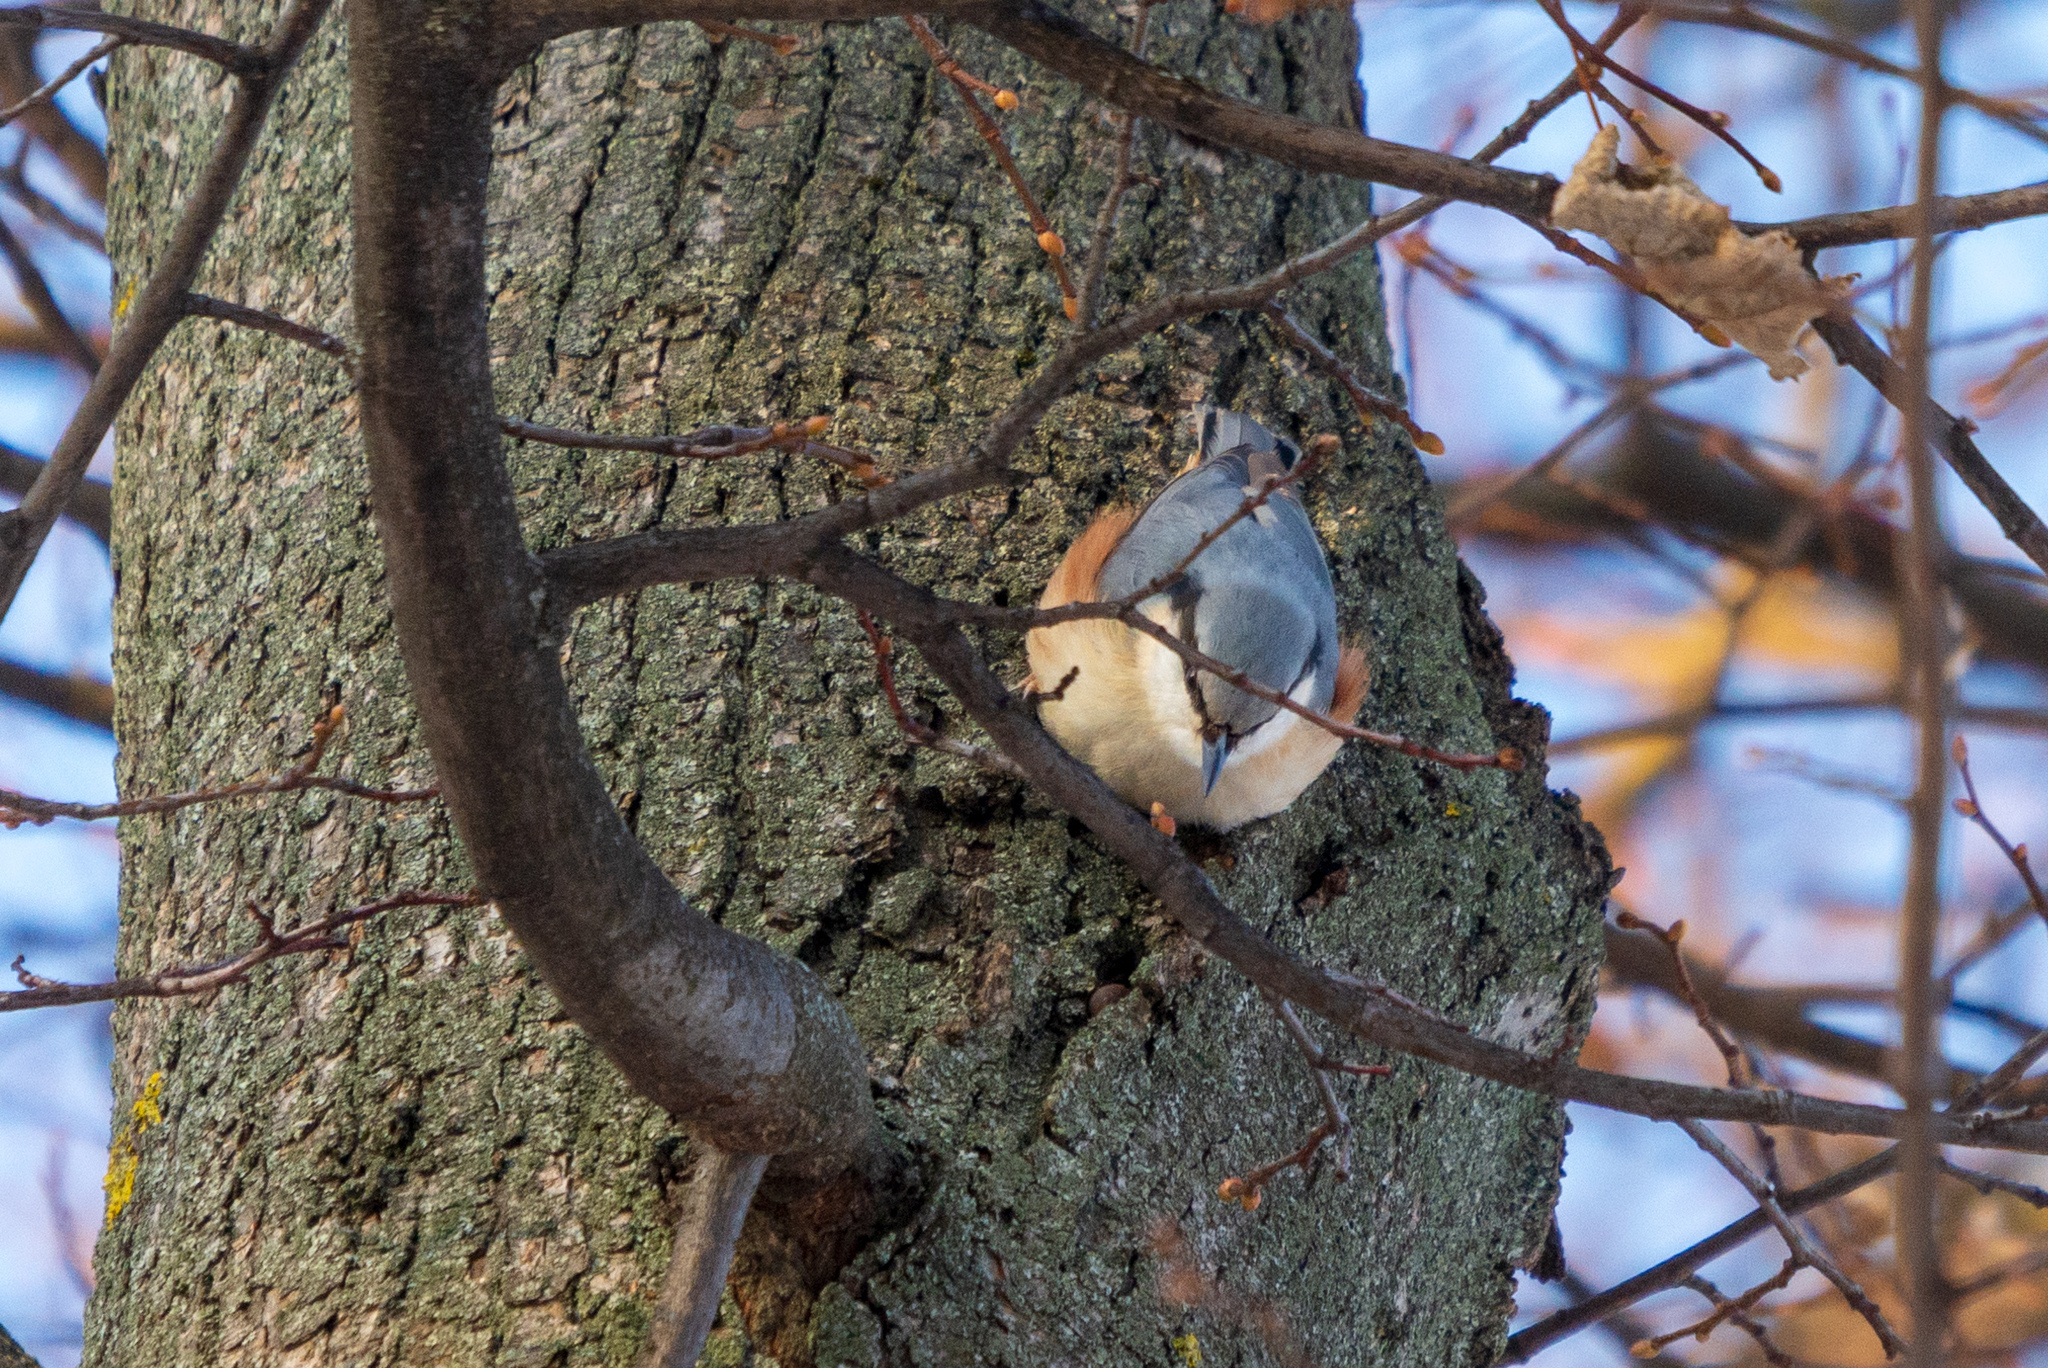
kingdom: Animalia
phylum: Chordata
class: Aves
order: Passeriformes
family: Sittidae
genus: Sitta
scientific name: Sitta europaea
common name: Eurasian nuthatch
